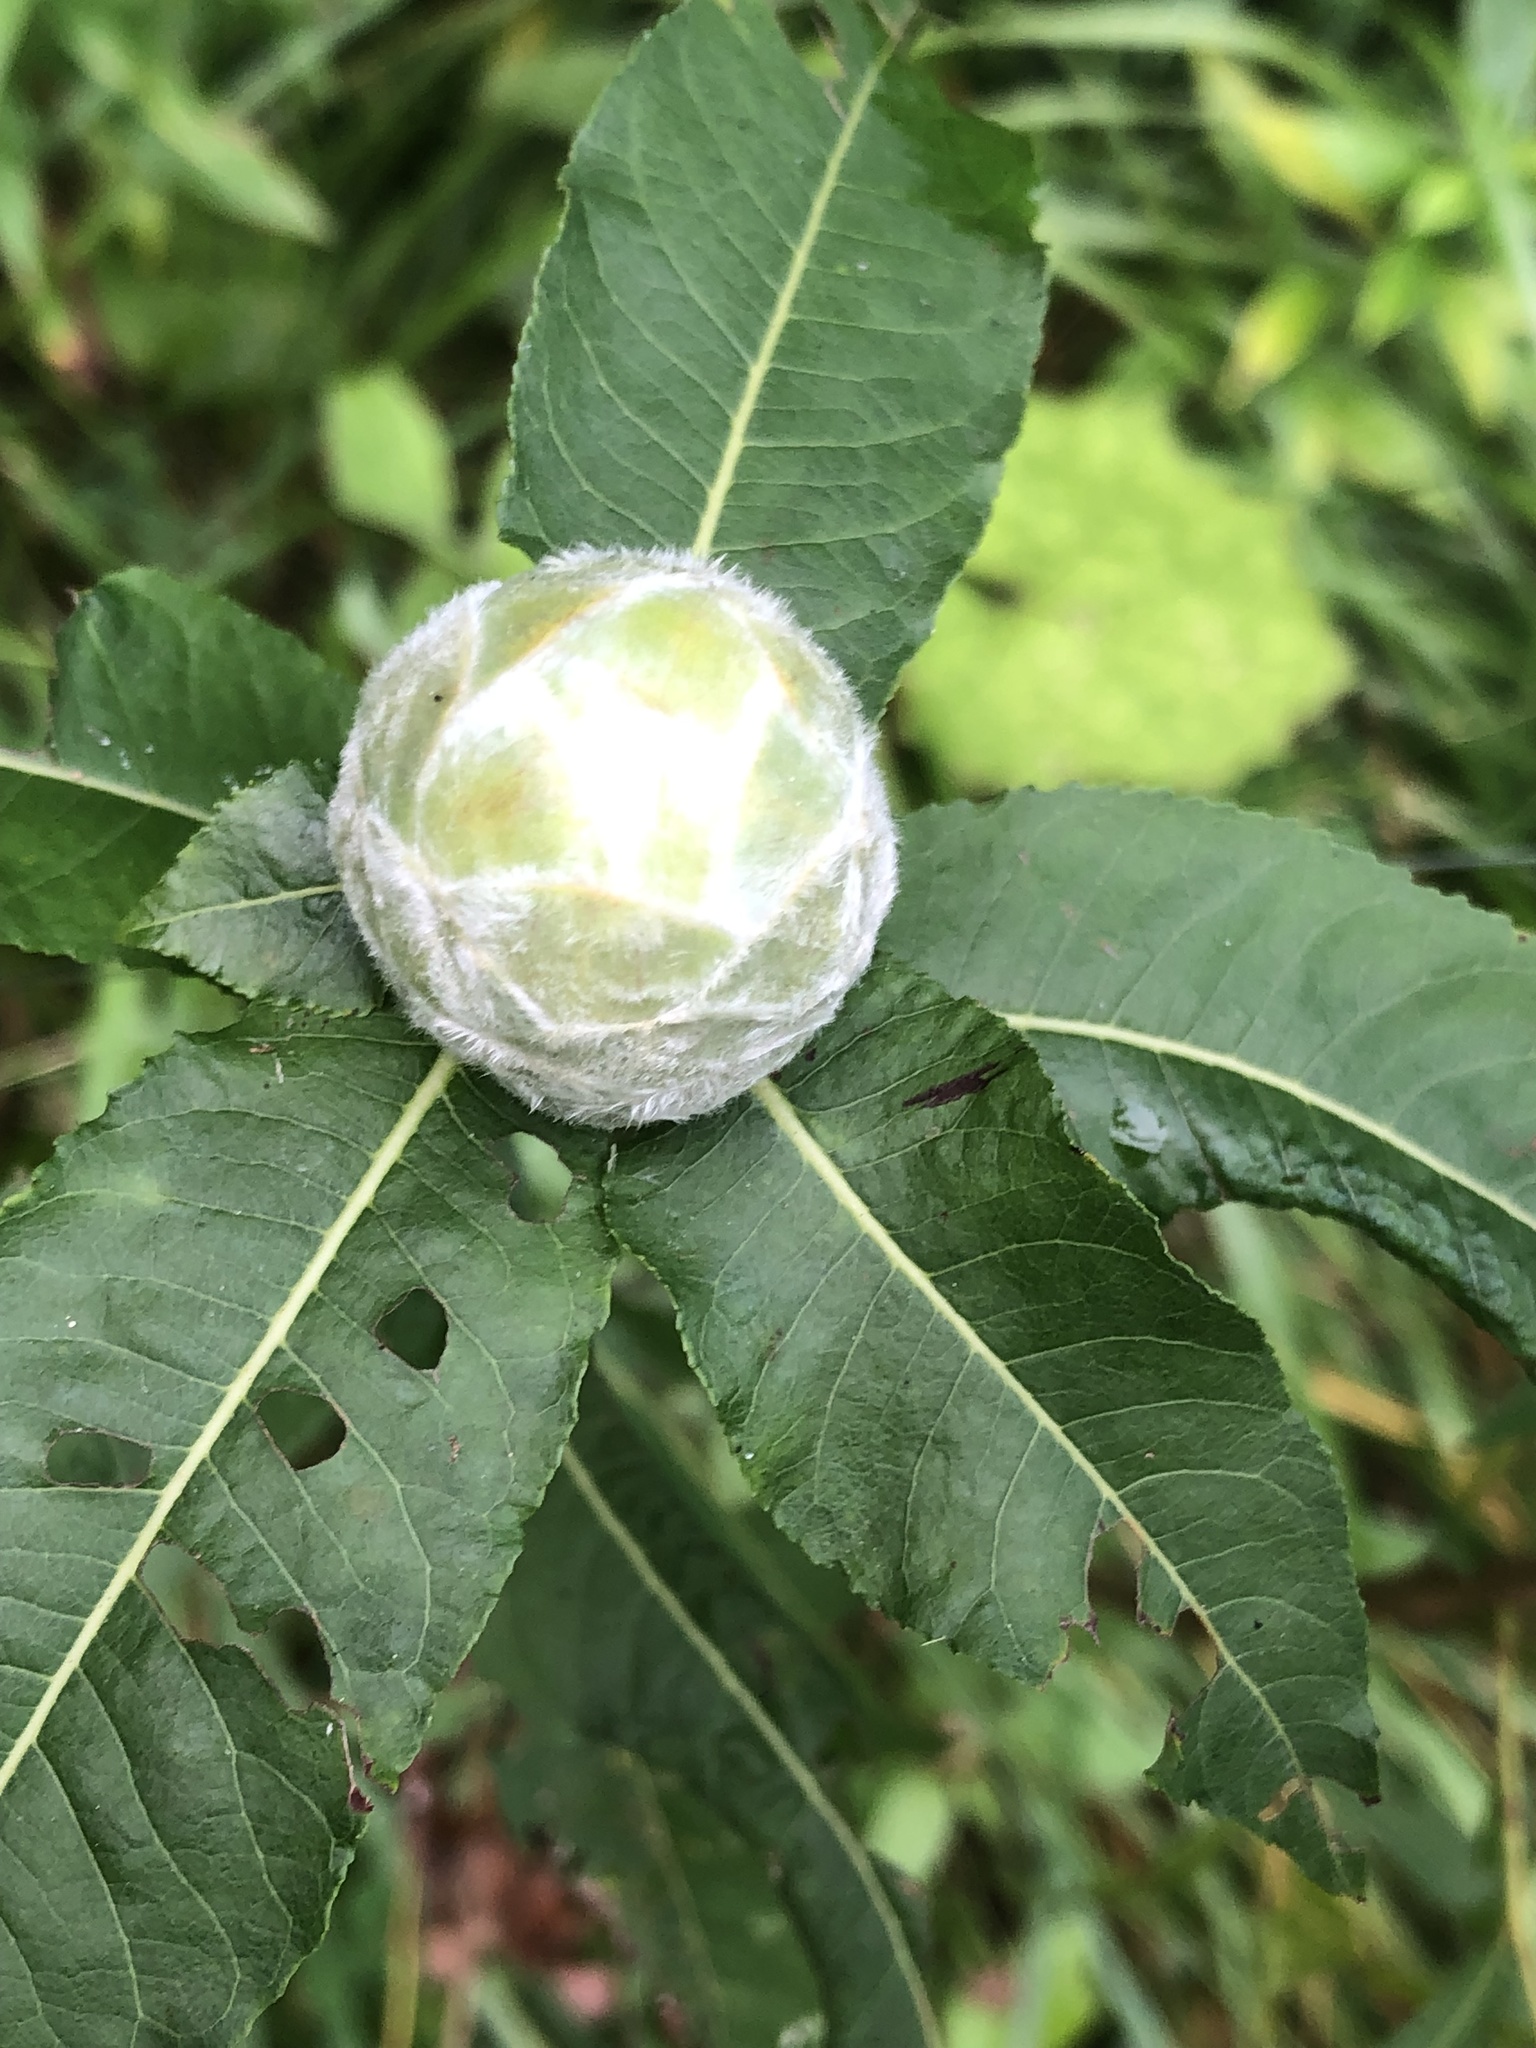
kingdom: Animalia
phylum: Arthropoda
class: Insecta
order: Diptera
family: Cecidomyiidae
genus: Rabdophaga
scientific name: Rabdophaga strobiloides
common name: Willow pinecone gall midge
